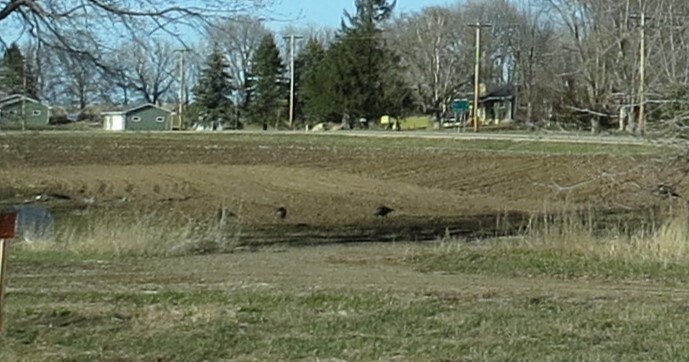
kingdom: Animalia
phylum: Chordata
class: Aves
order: Galliformes
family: Phasianidae
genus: Meleagris
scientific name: Meleagris gallopavo
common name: Wild turkey
